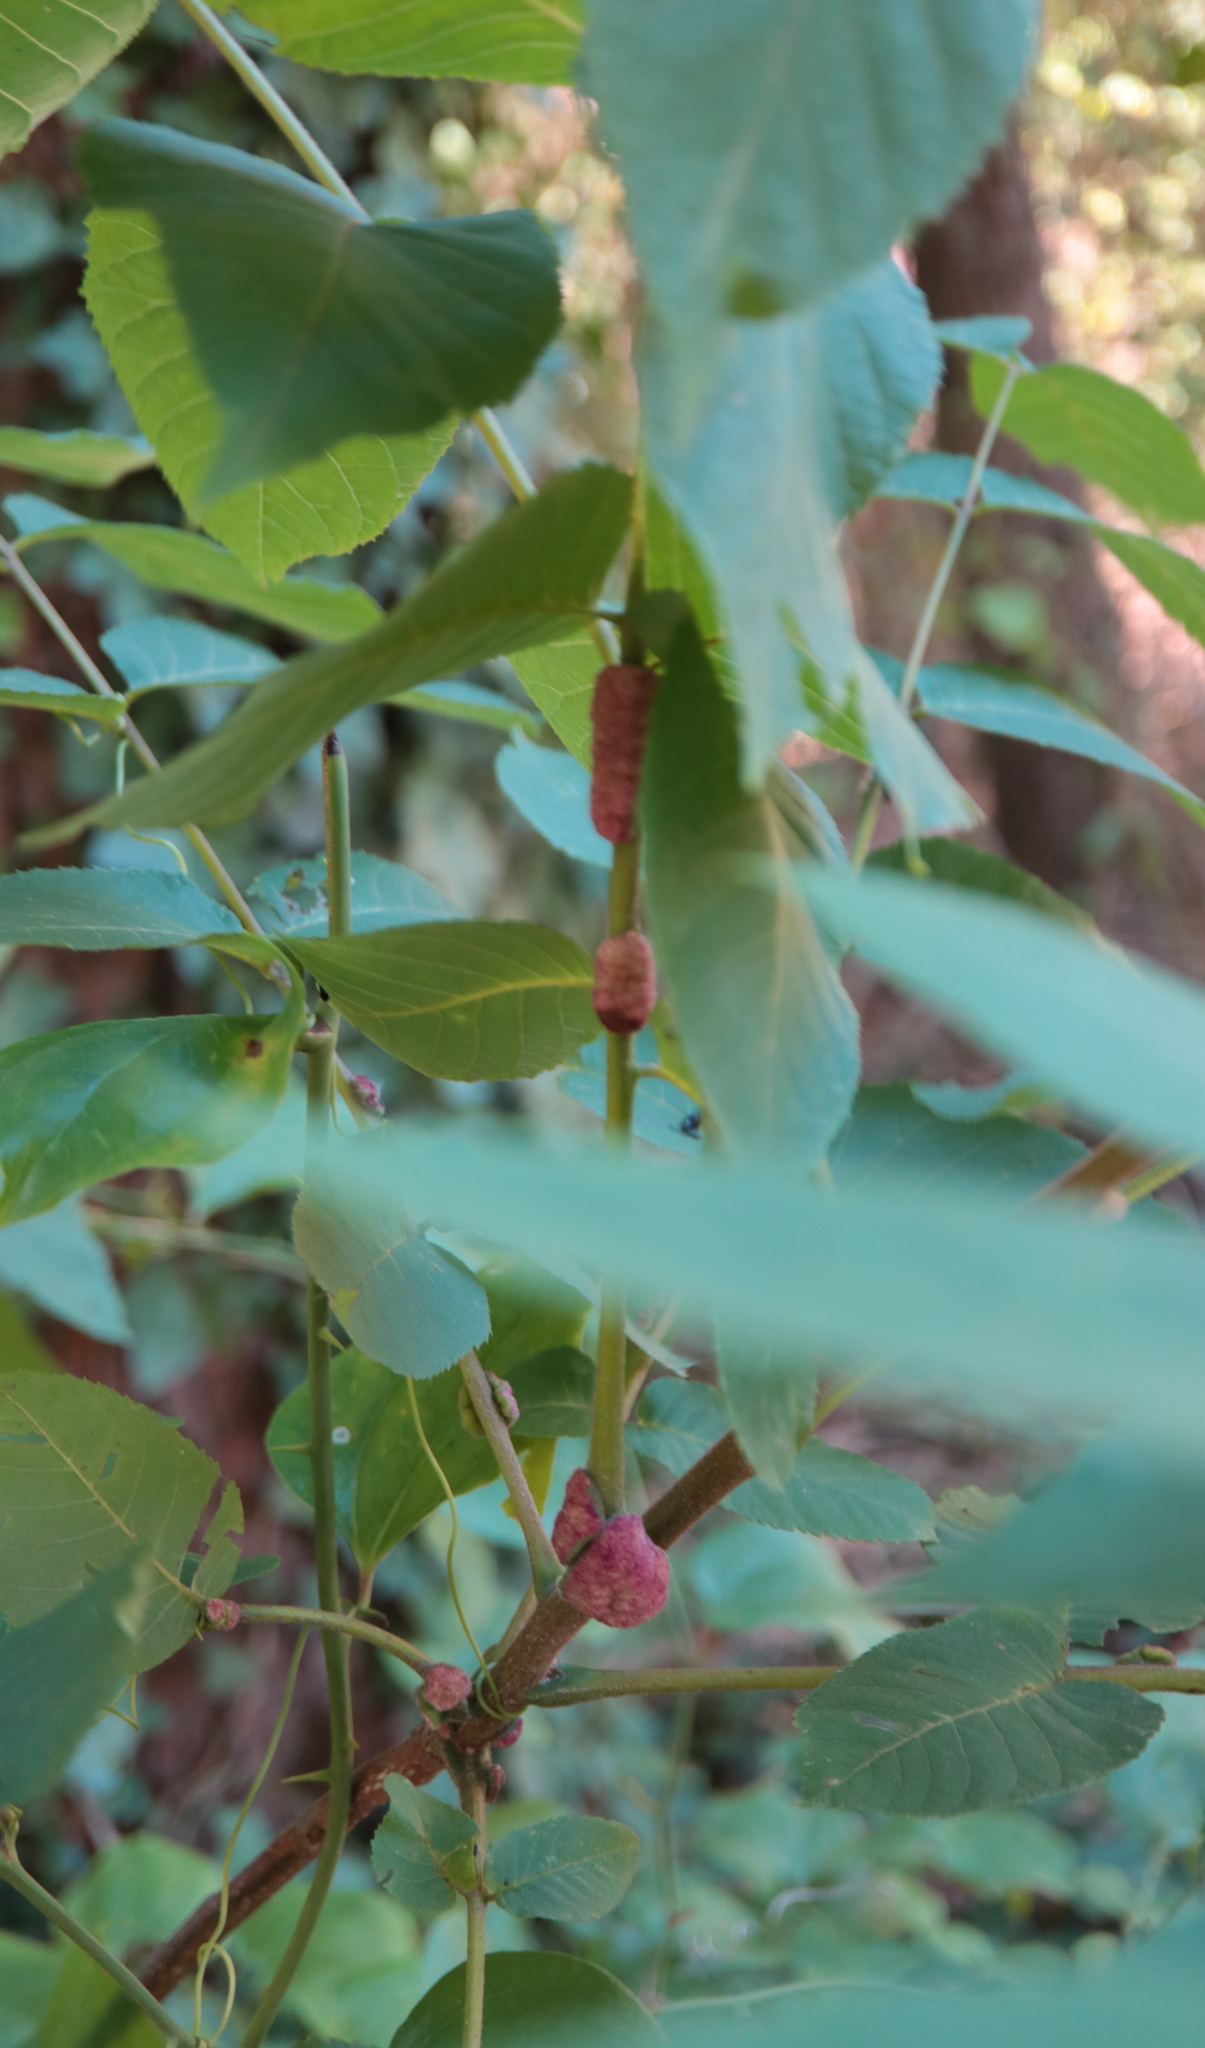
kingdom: Animalia
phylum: Arthropoda
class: Arachnida
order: Trombidiformes
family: Eriophyidae
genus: Aceria
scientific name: Aceria
